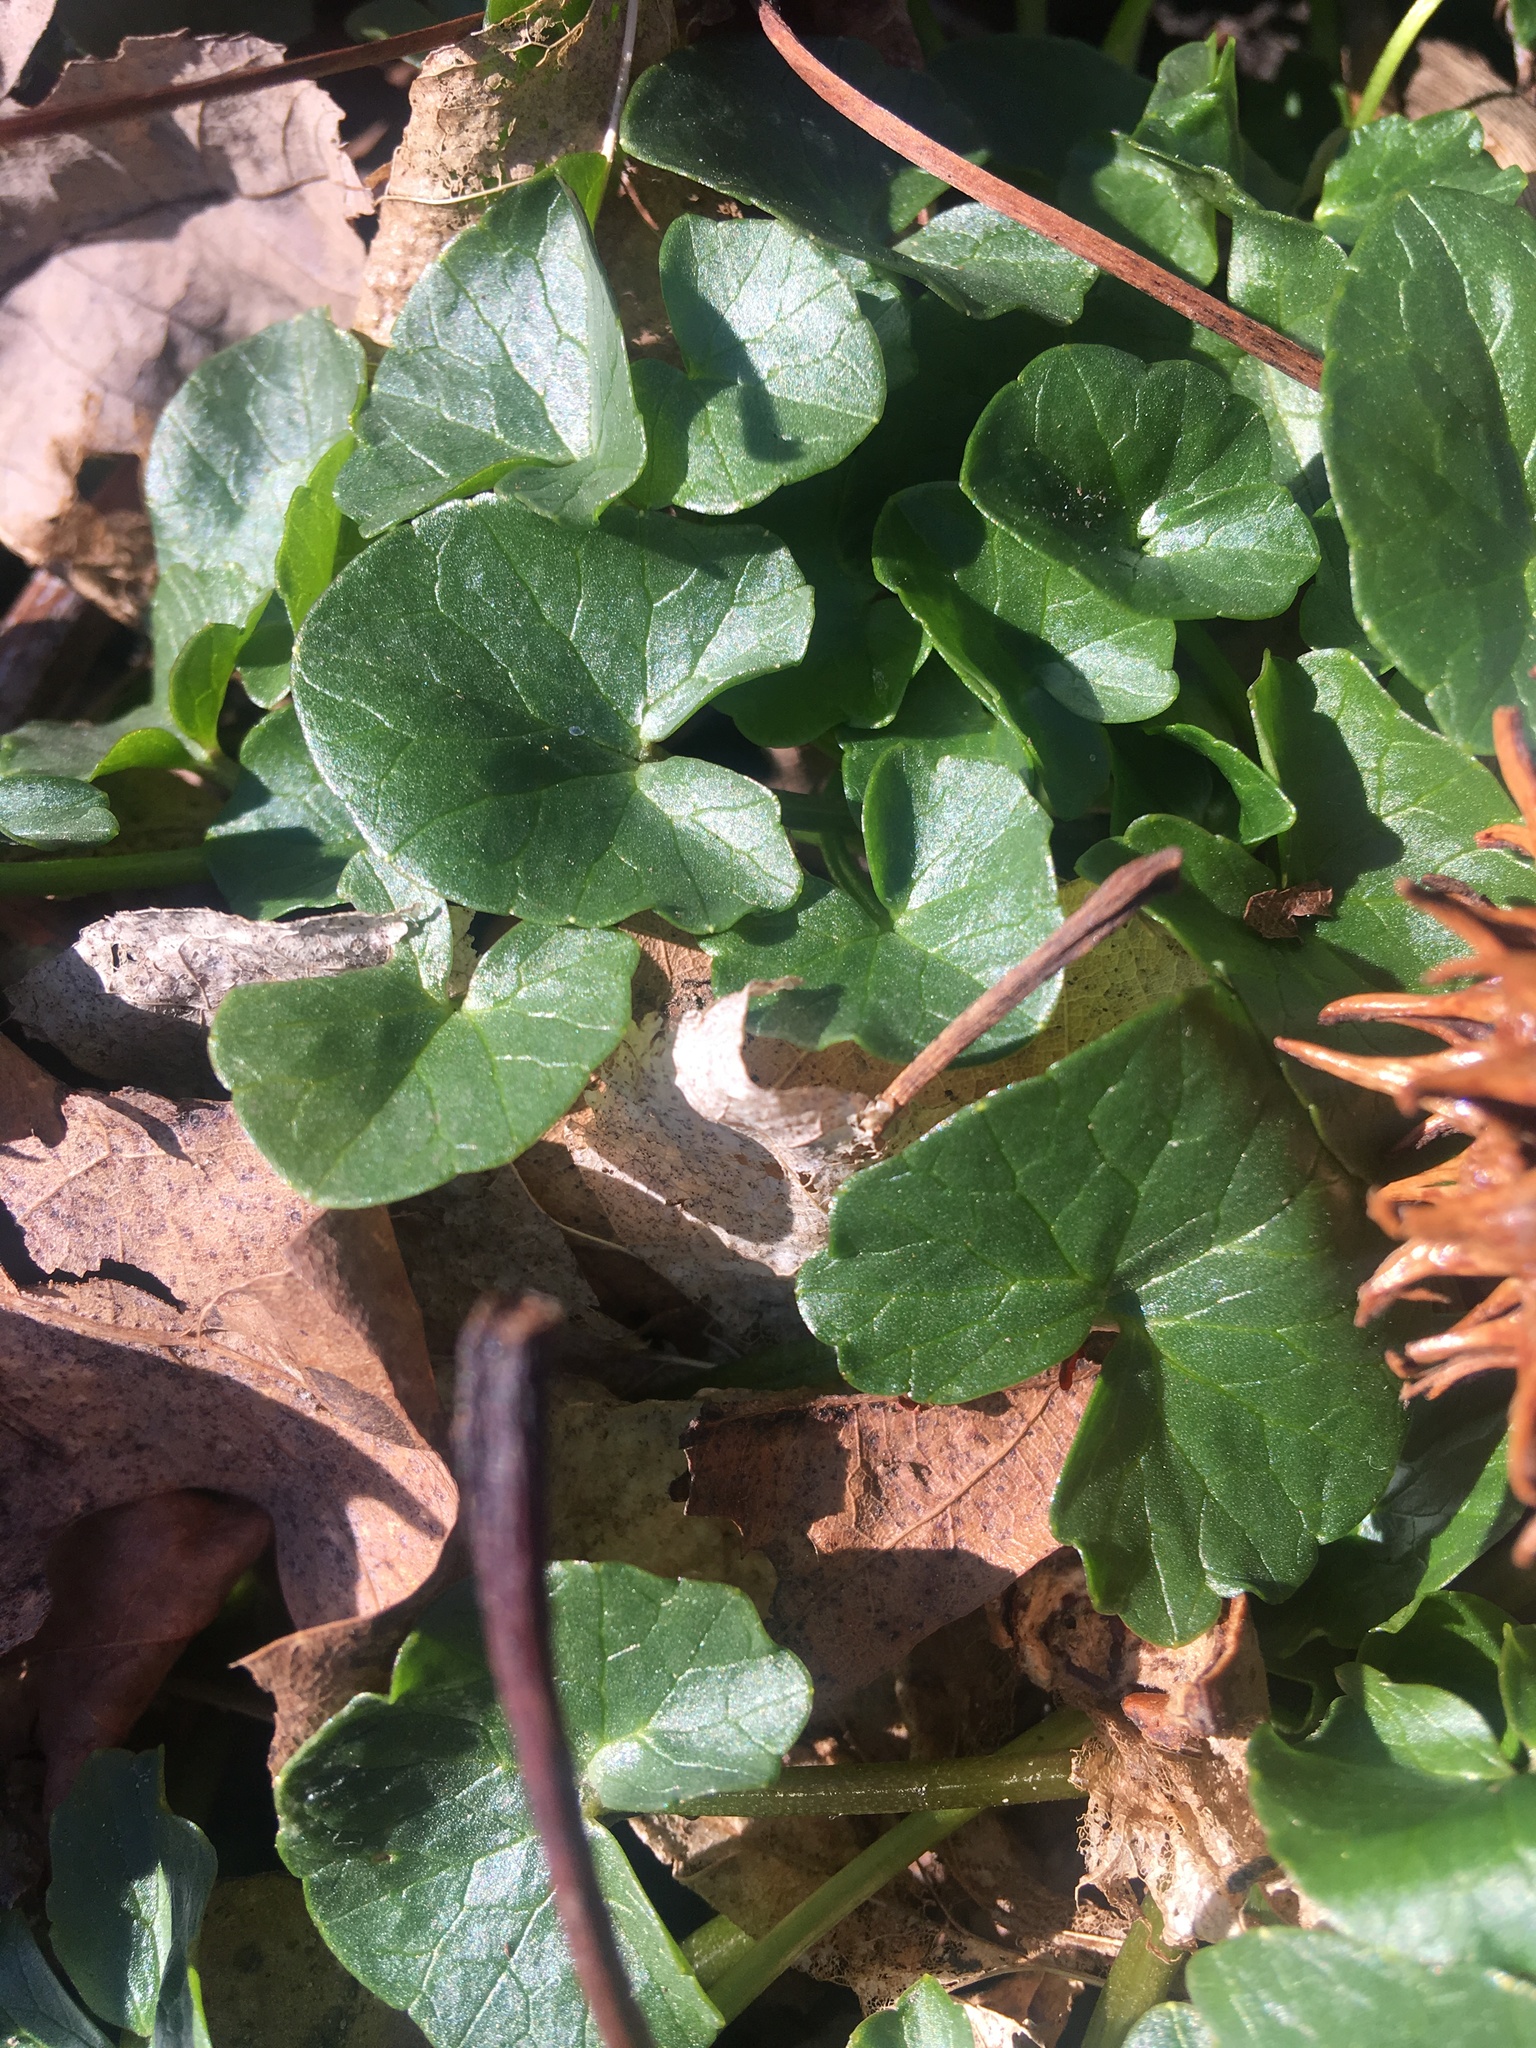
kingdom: Plantae
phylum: Tracheophyta
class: Magnoliopsida
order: Ranunculales
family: Ranunculaceae
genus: Ficaria
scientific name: Ficaria verna
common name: Lesser celandine
